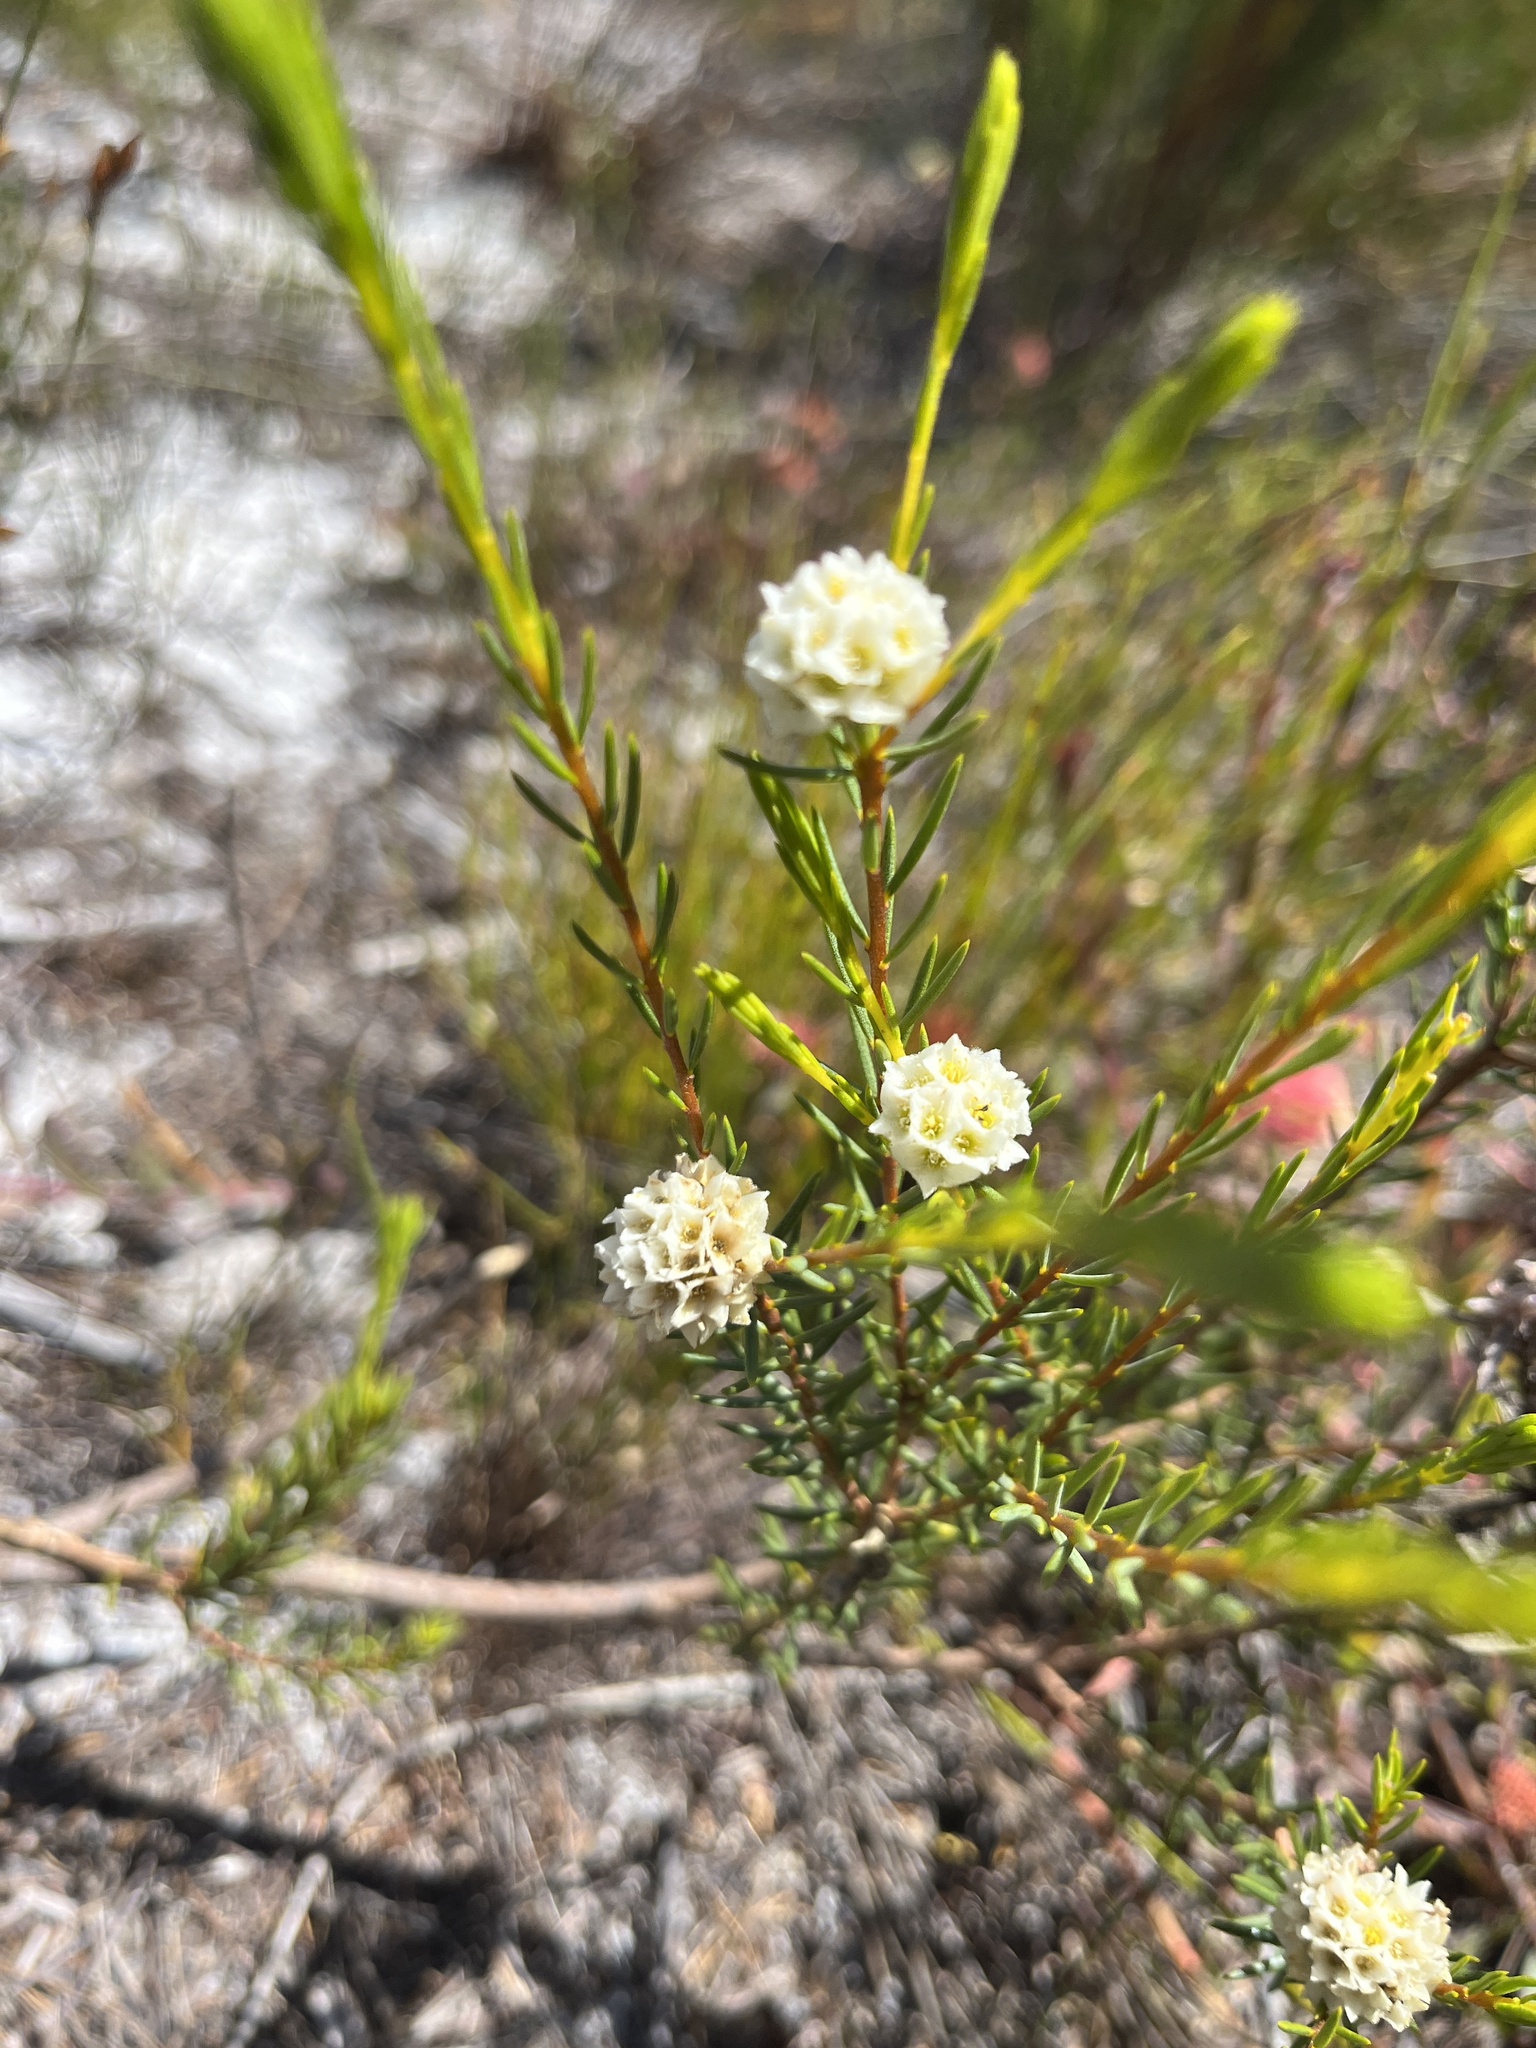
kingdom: Plantae
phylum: Tracheophyta
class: Magnoliopsida
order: Malvales
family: Thymelaeaceae
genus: Lachnaea
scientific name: Lachnaea densiflora
